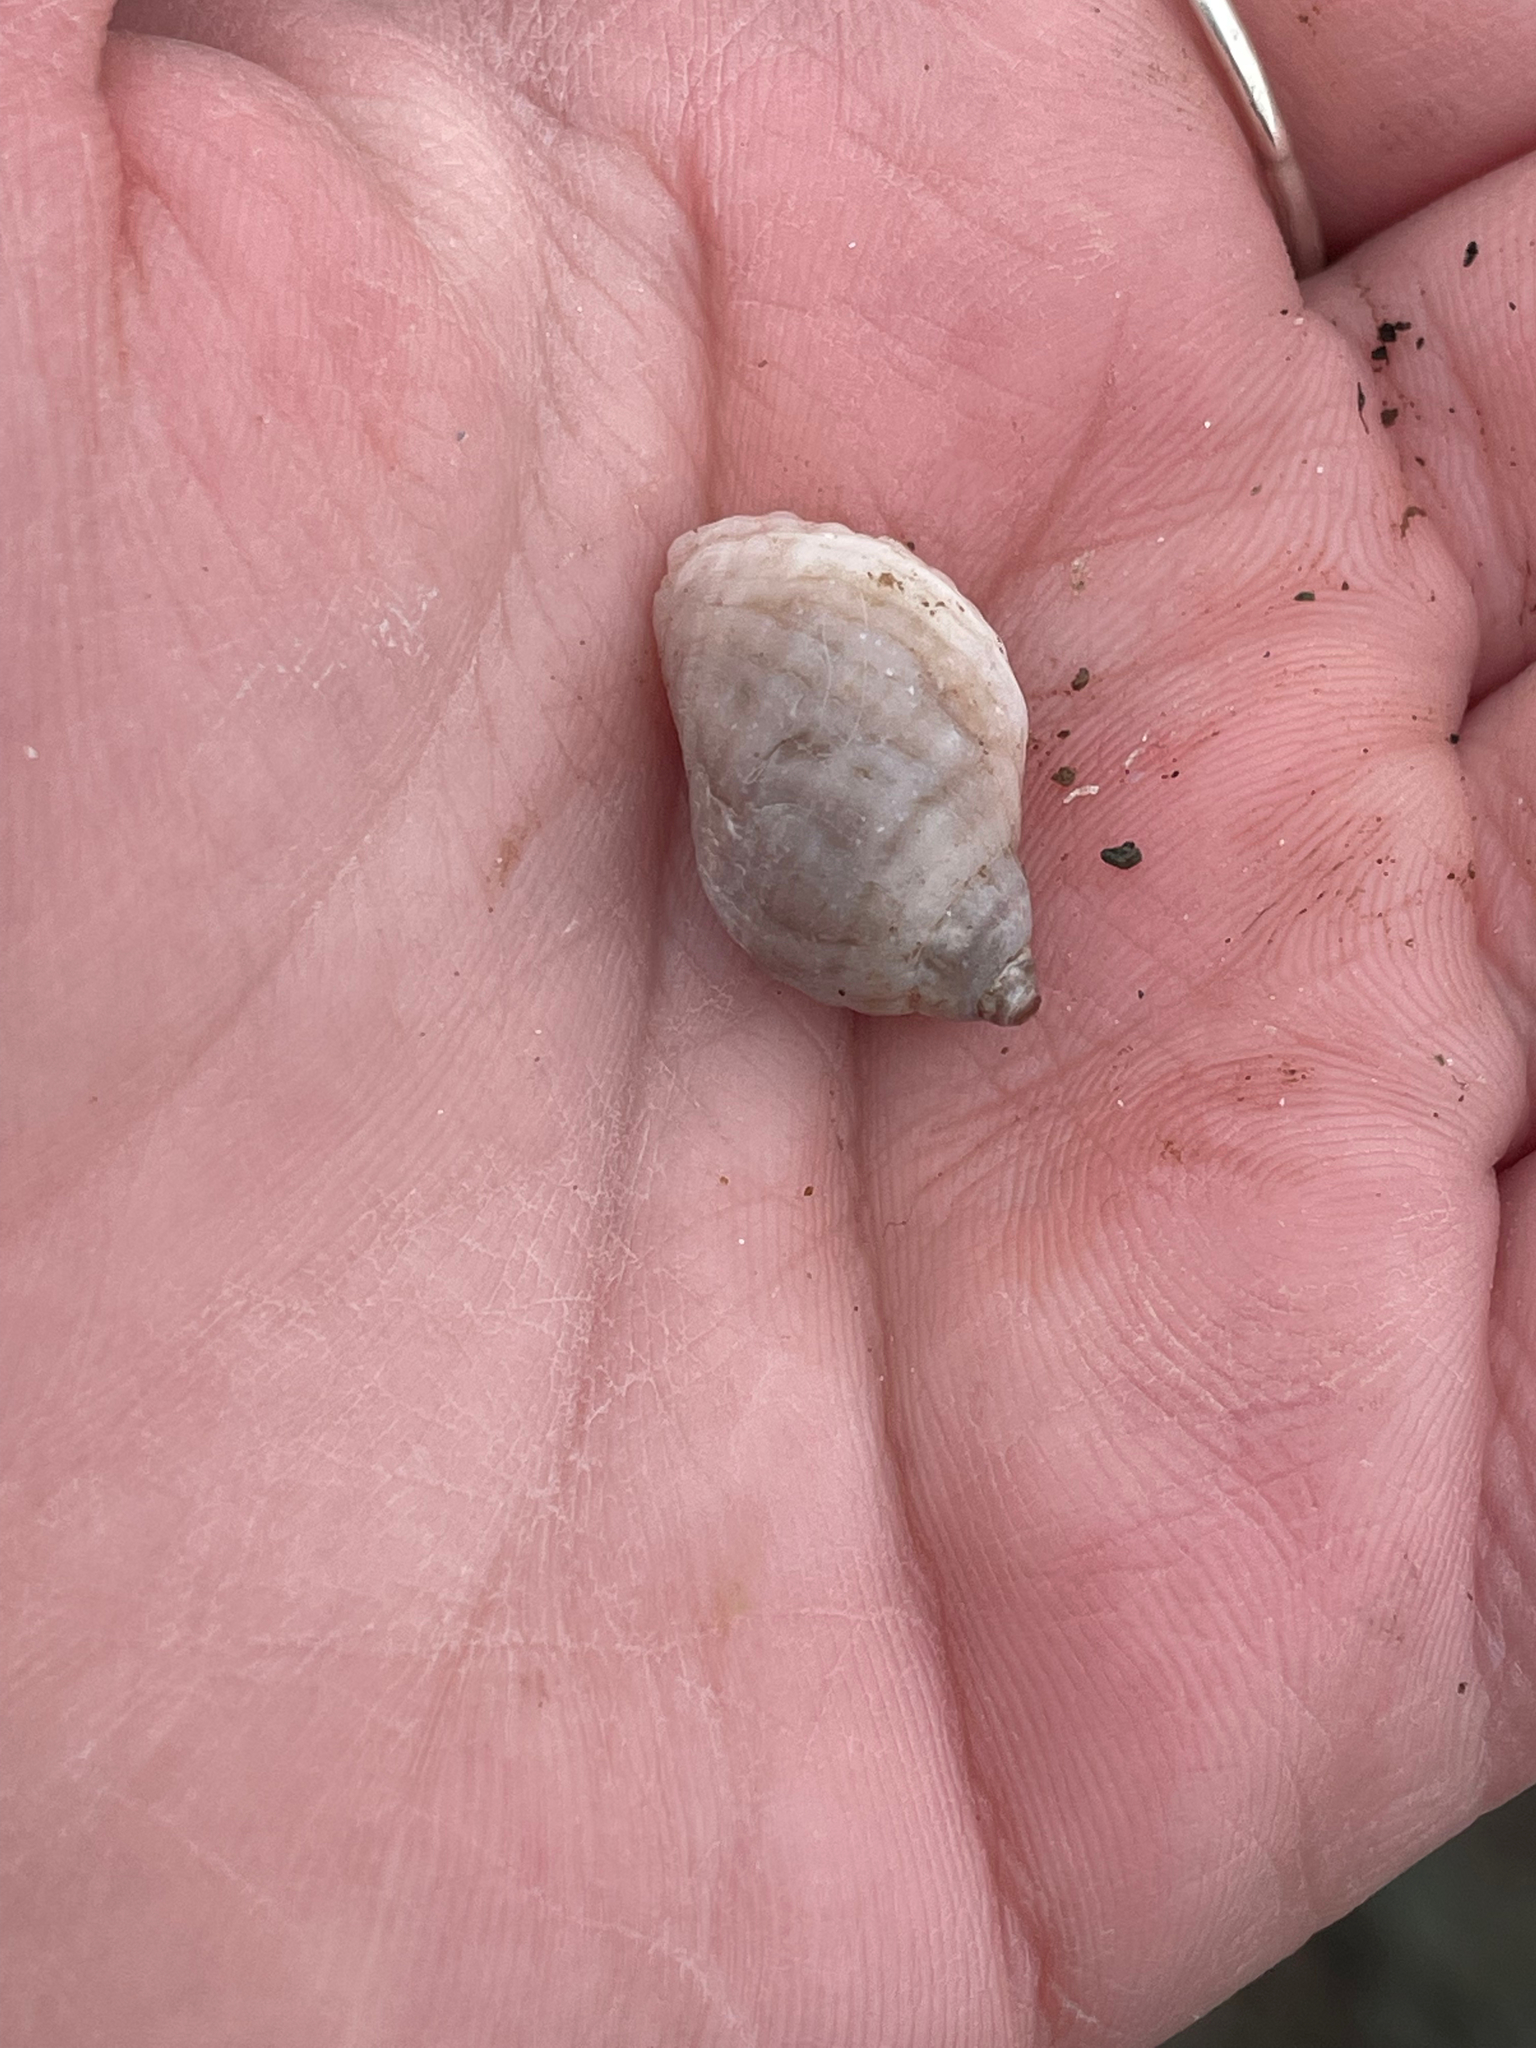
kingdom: Animalia
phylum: Mollusca
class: Gastropoda
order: Neogastropoda
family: Muricidae
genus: Nucella
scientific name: Nucella lapillus
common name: Dog whelk
